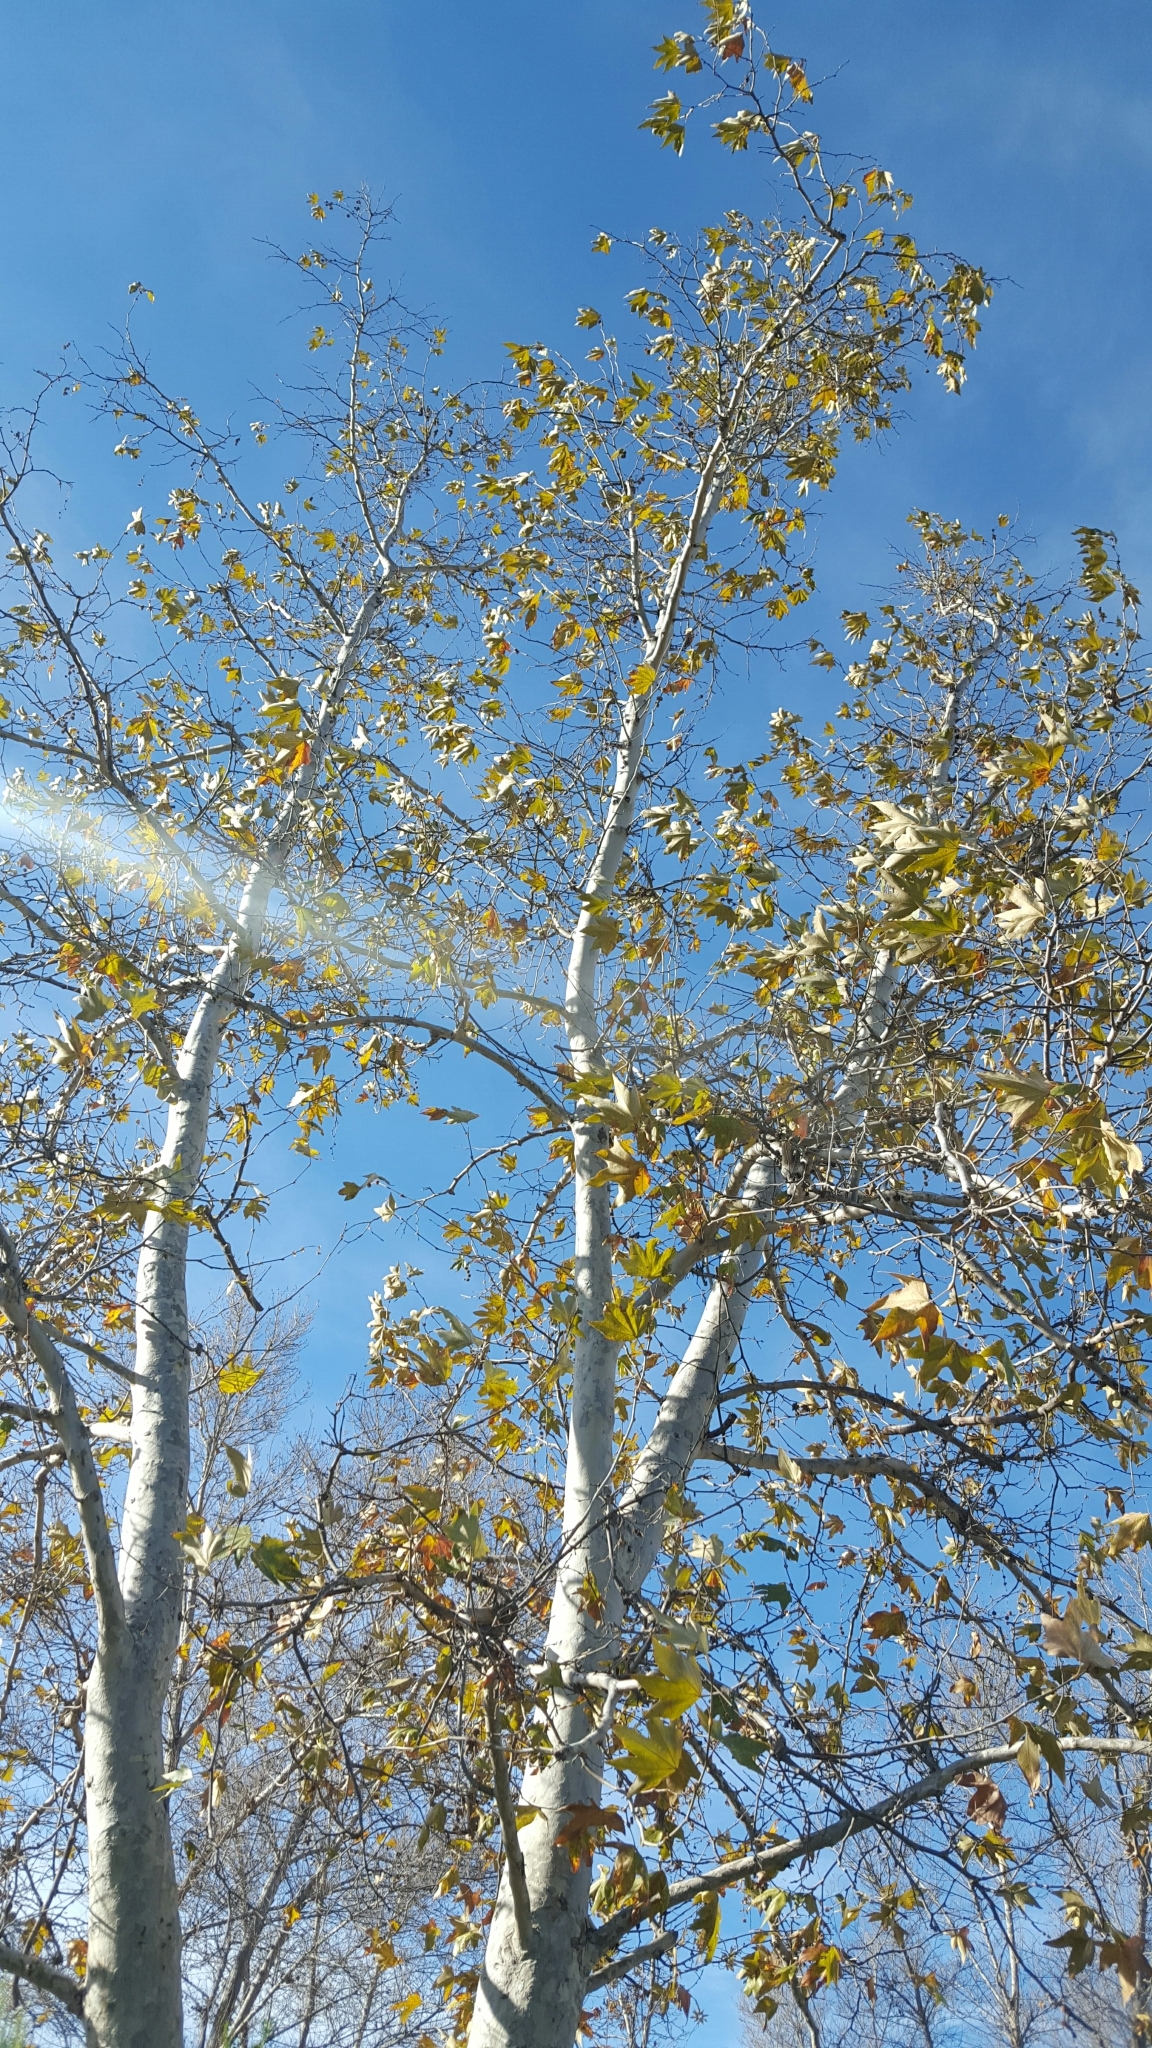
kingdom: Plantae
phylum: Tracheophyta
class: Magnoliopsida
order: Proteales
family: Platanaceae
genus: Platanus
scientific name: Platanus racemosa
